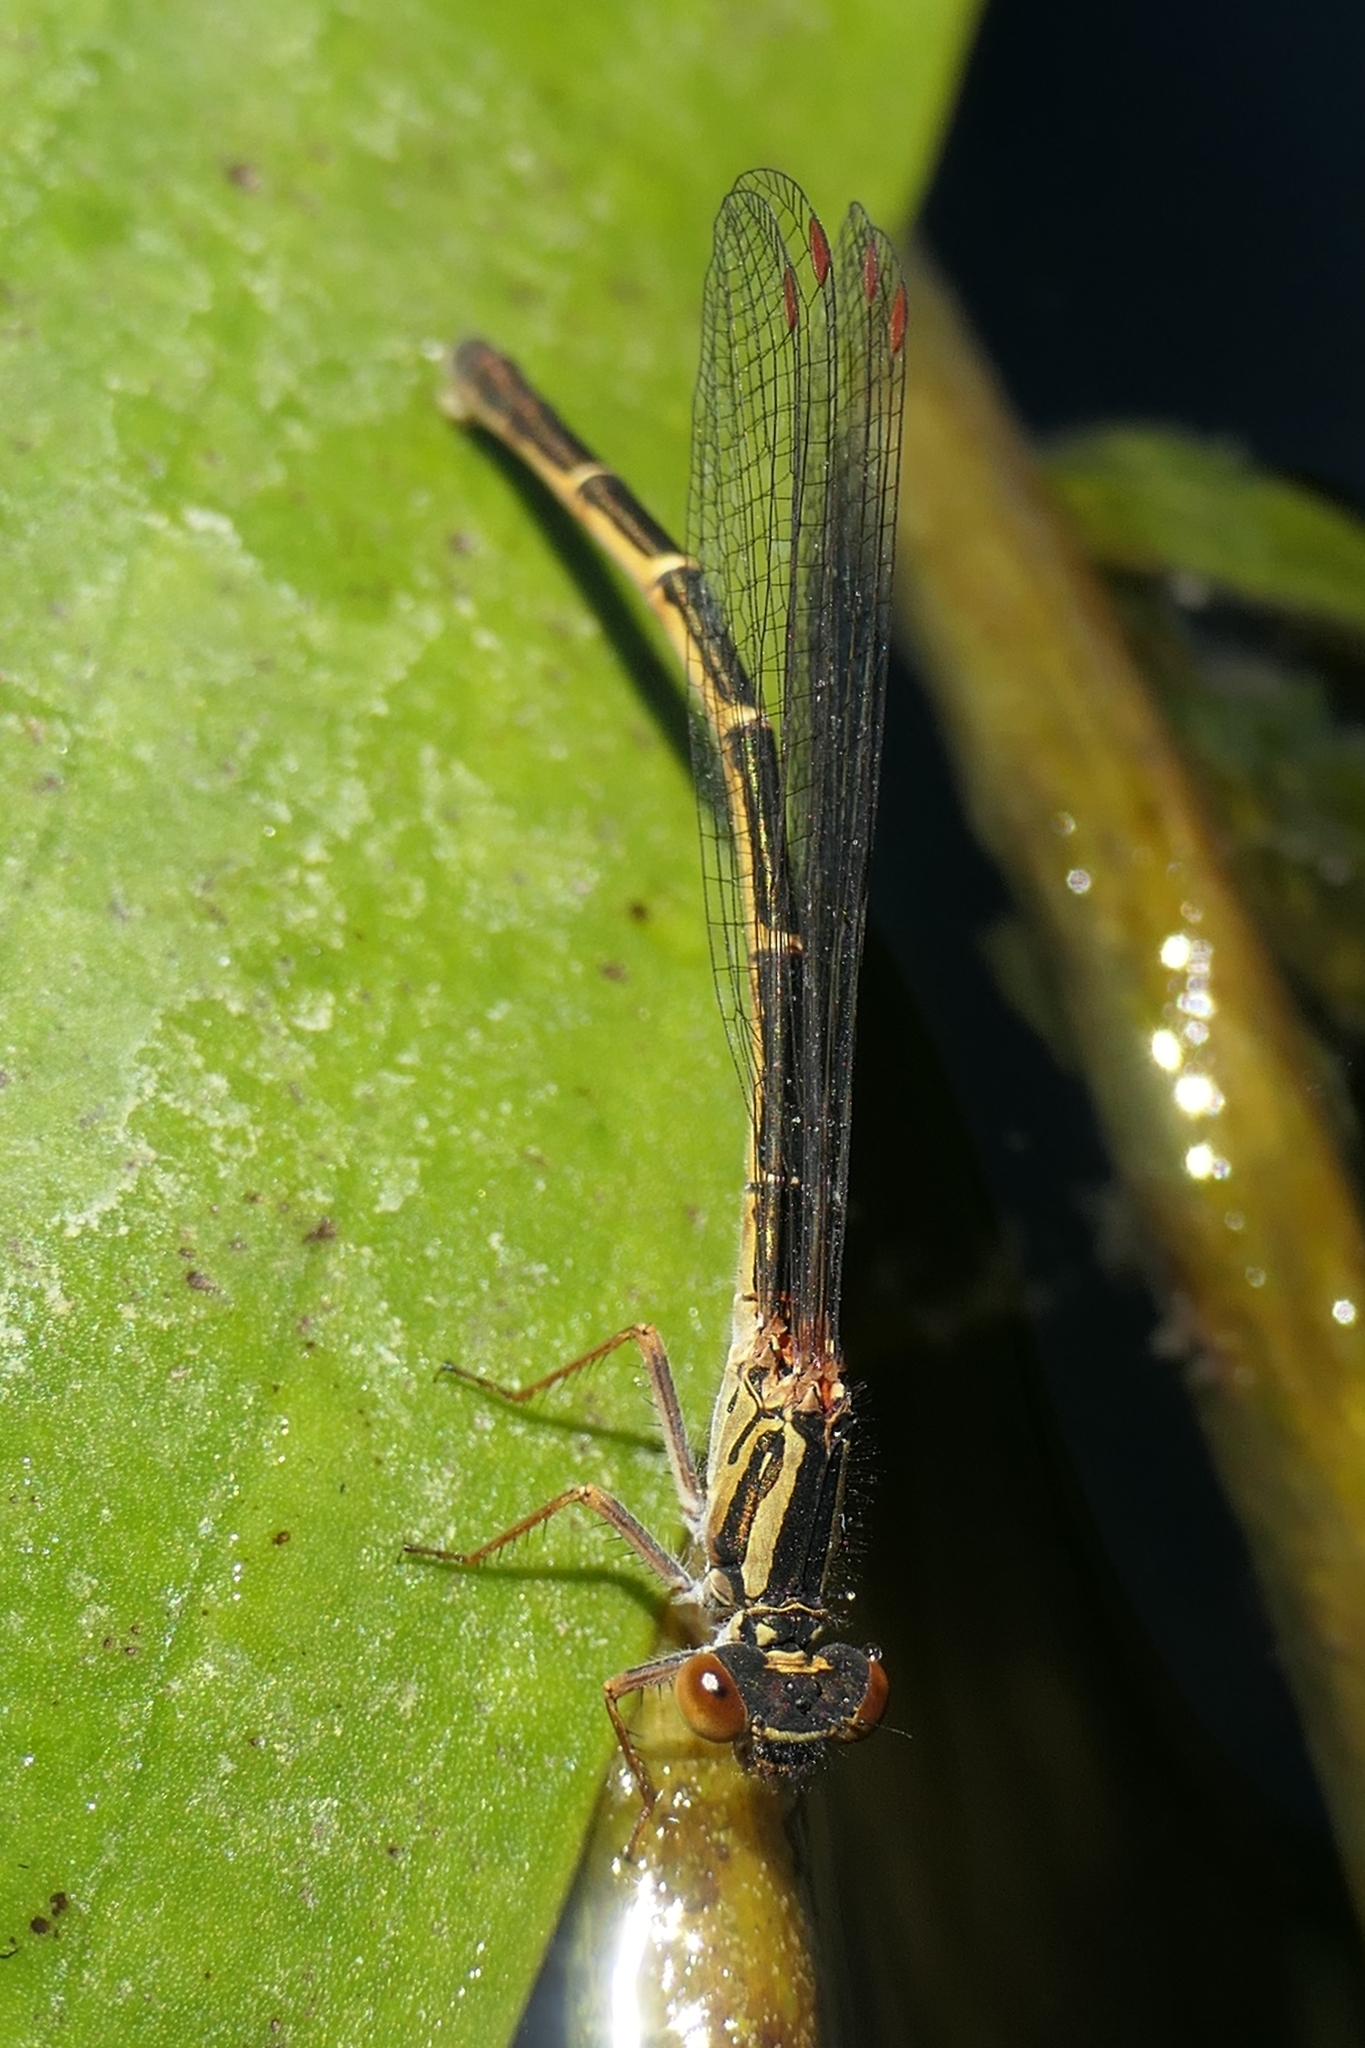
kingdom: Animalia
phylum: Arthropoda
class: Insecta
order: Odonata
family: Coenagrionidae
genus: Xanthocnemis
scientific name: Xanthocnemis zealandica
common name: Common redcoat damselfly
